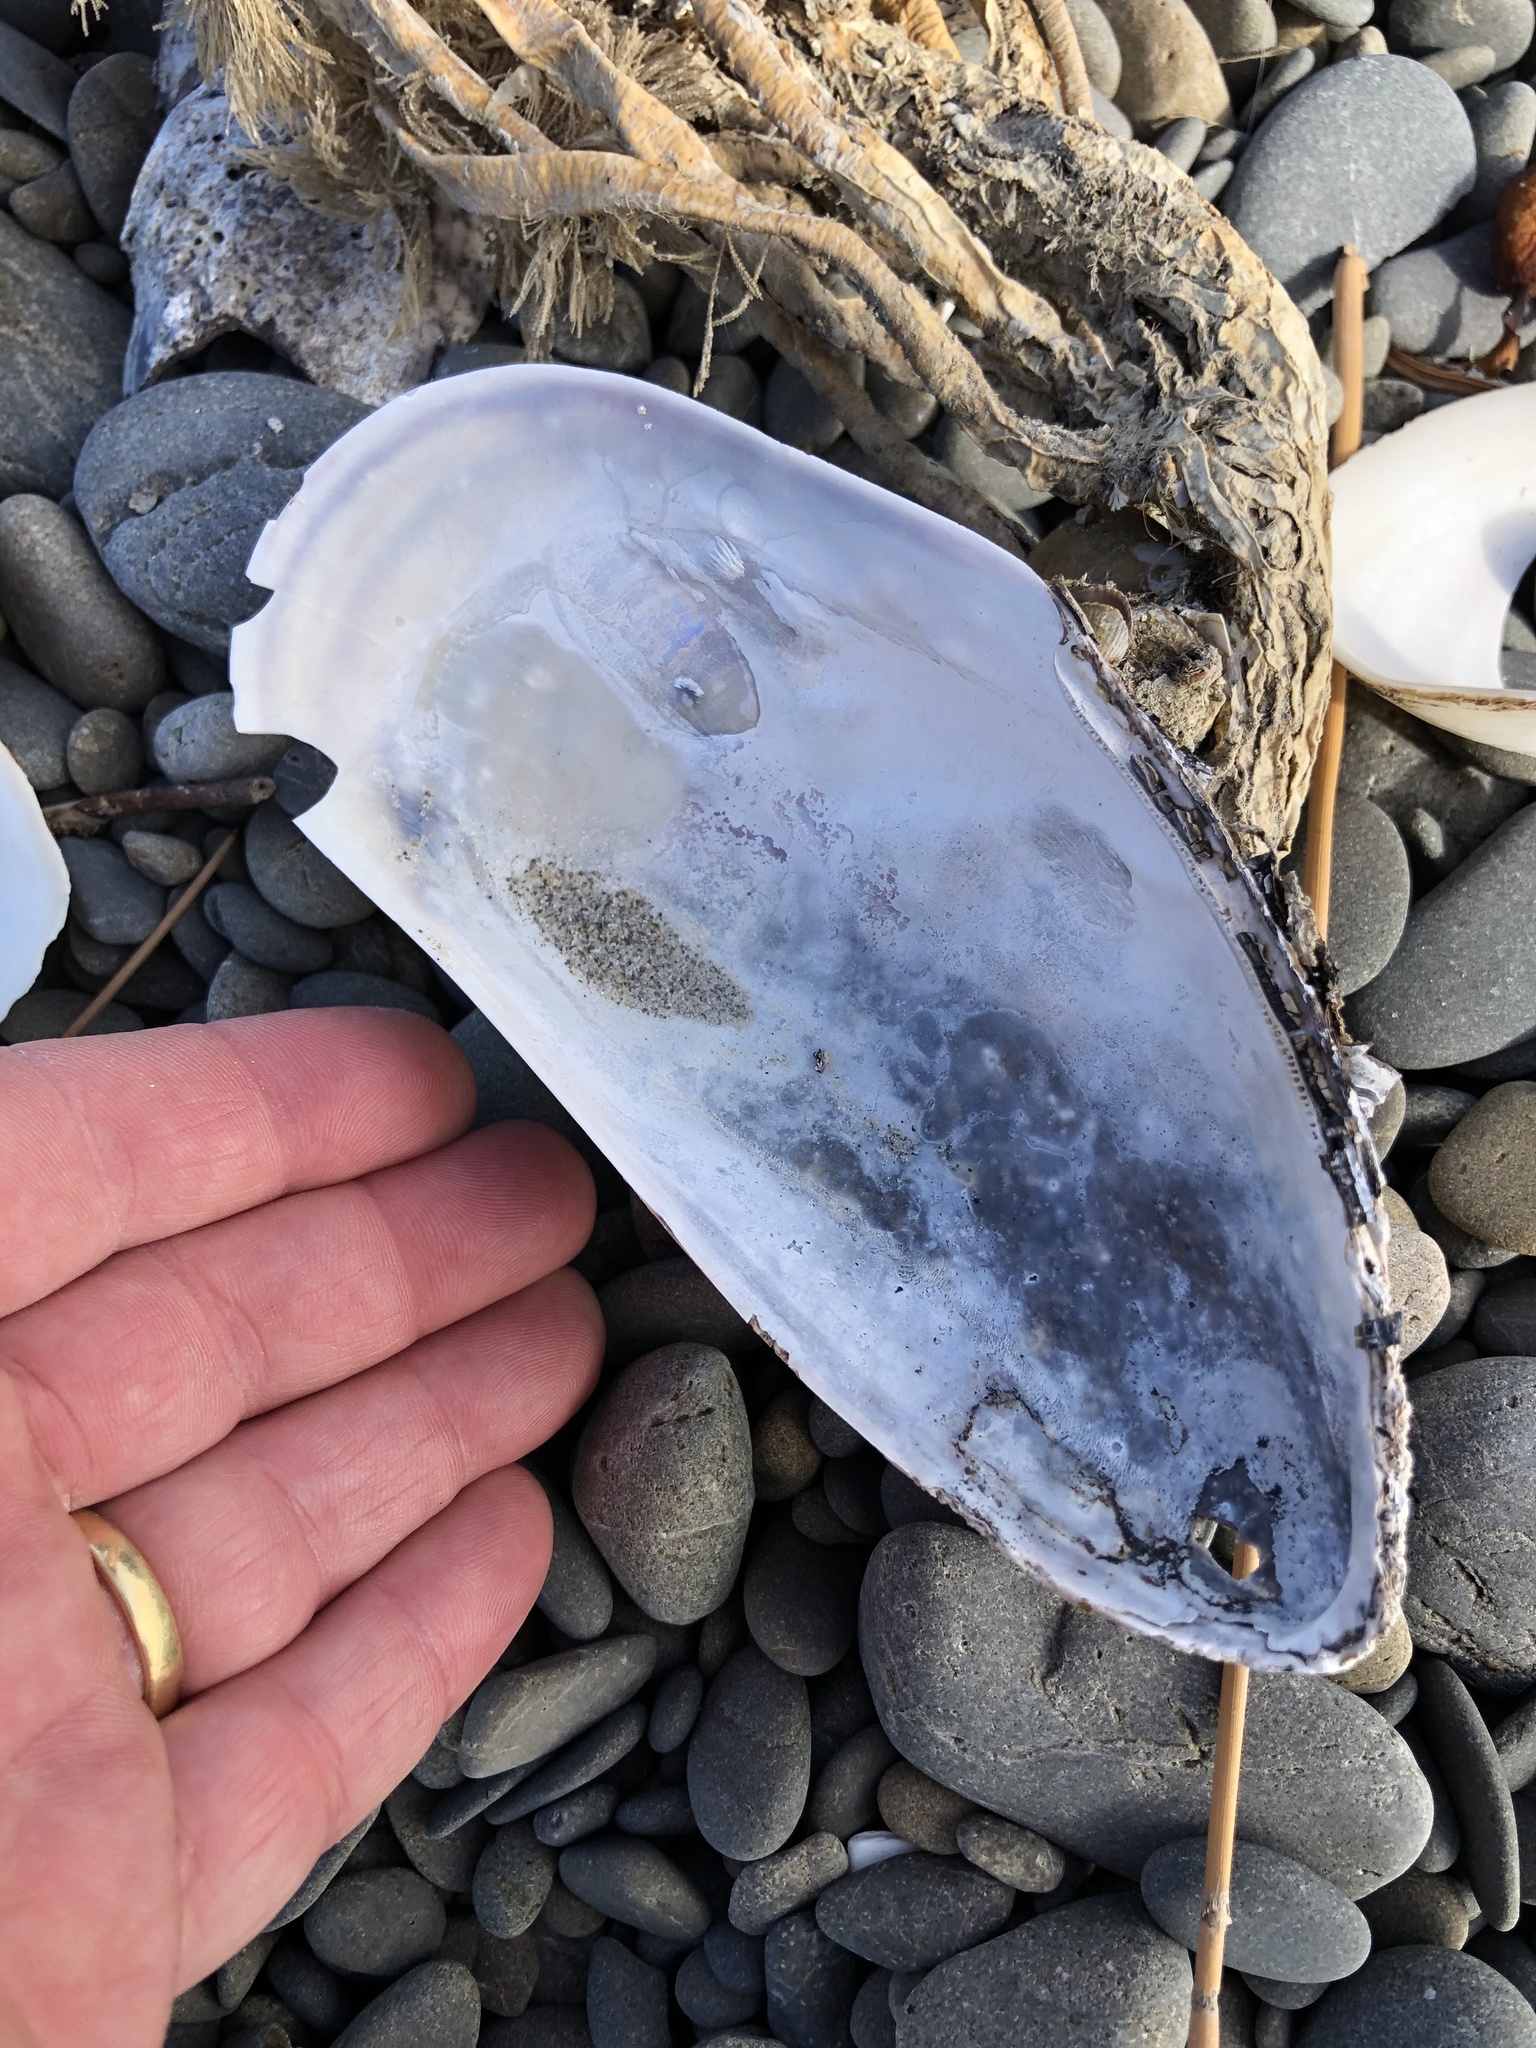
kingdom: Animalia
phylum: Mollusca
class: Bivalvia
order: Mytilida
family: Mytilidae
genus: Perna
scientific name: Perna canaliculus
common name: New zealand greenshelltm
